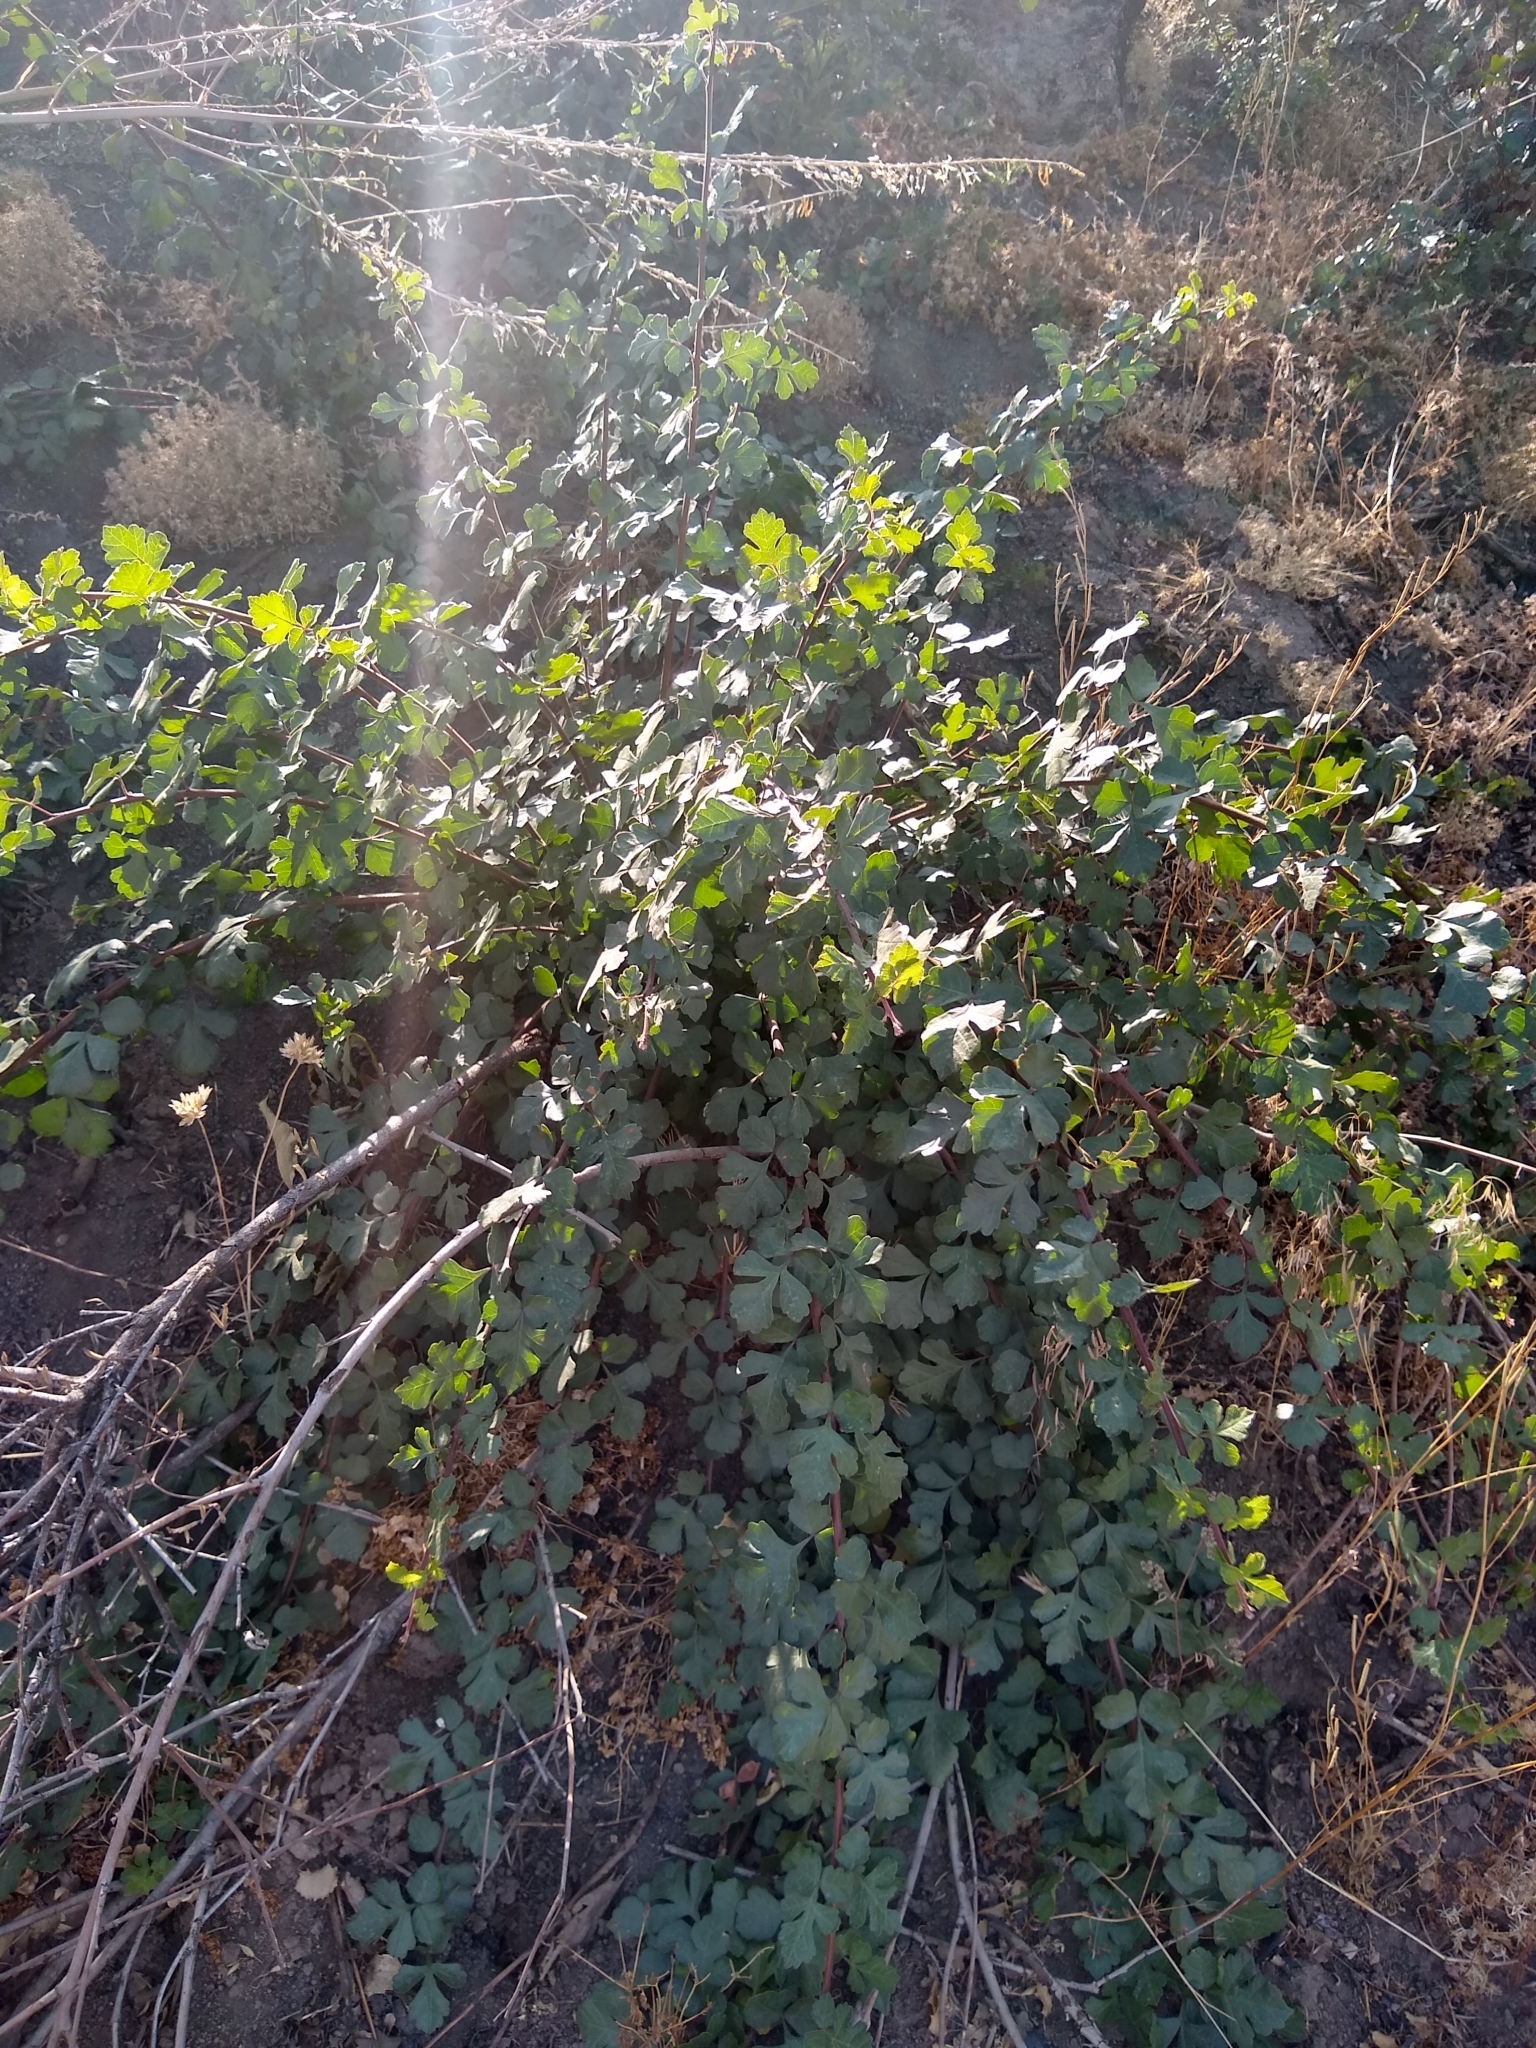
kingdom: Plantae
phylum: Tracheophyta
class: Magnoliopsida
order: Sapindales
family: Anacardiaceae
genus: Rhus
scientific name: Rhus aromatica
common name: Aromatic sumac
